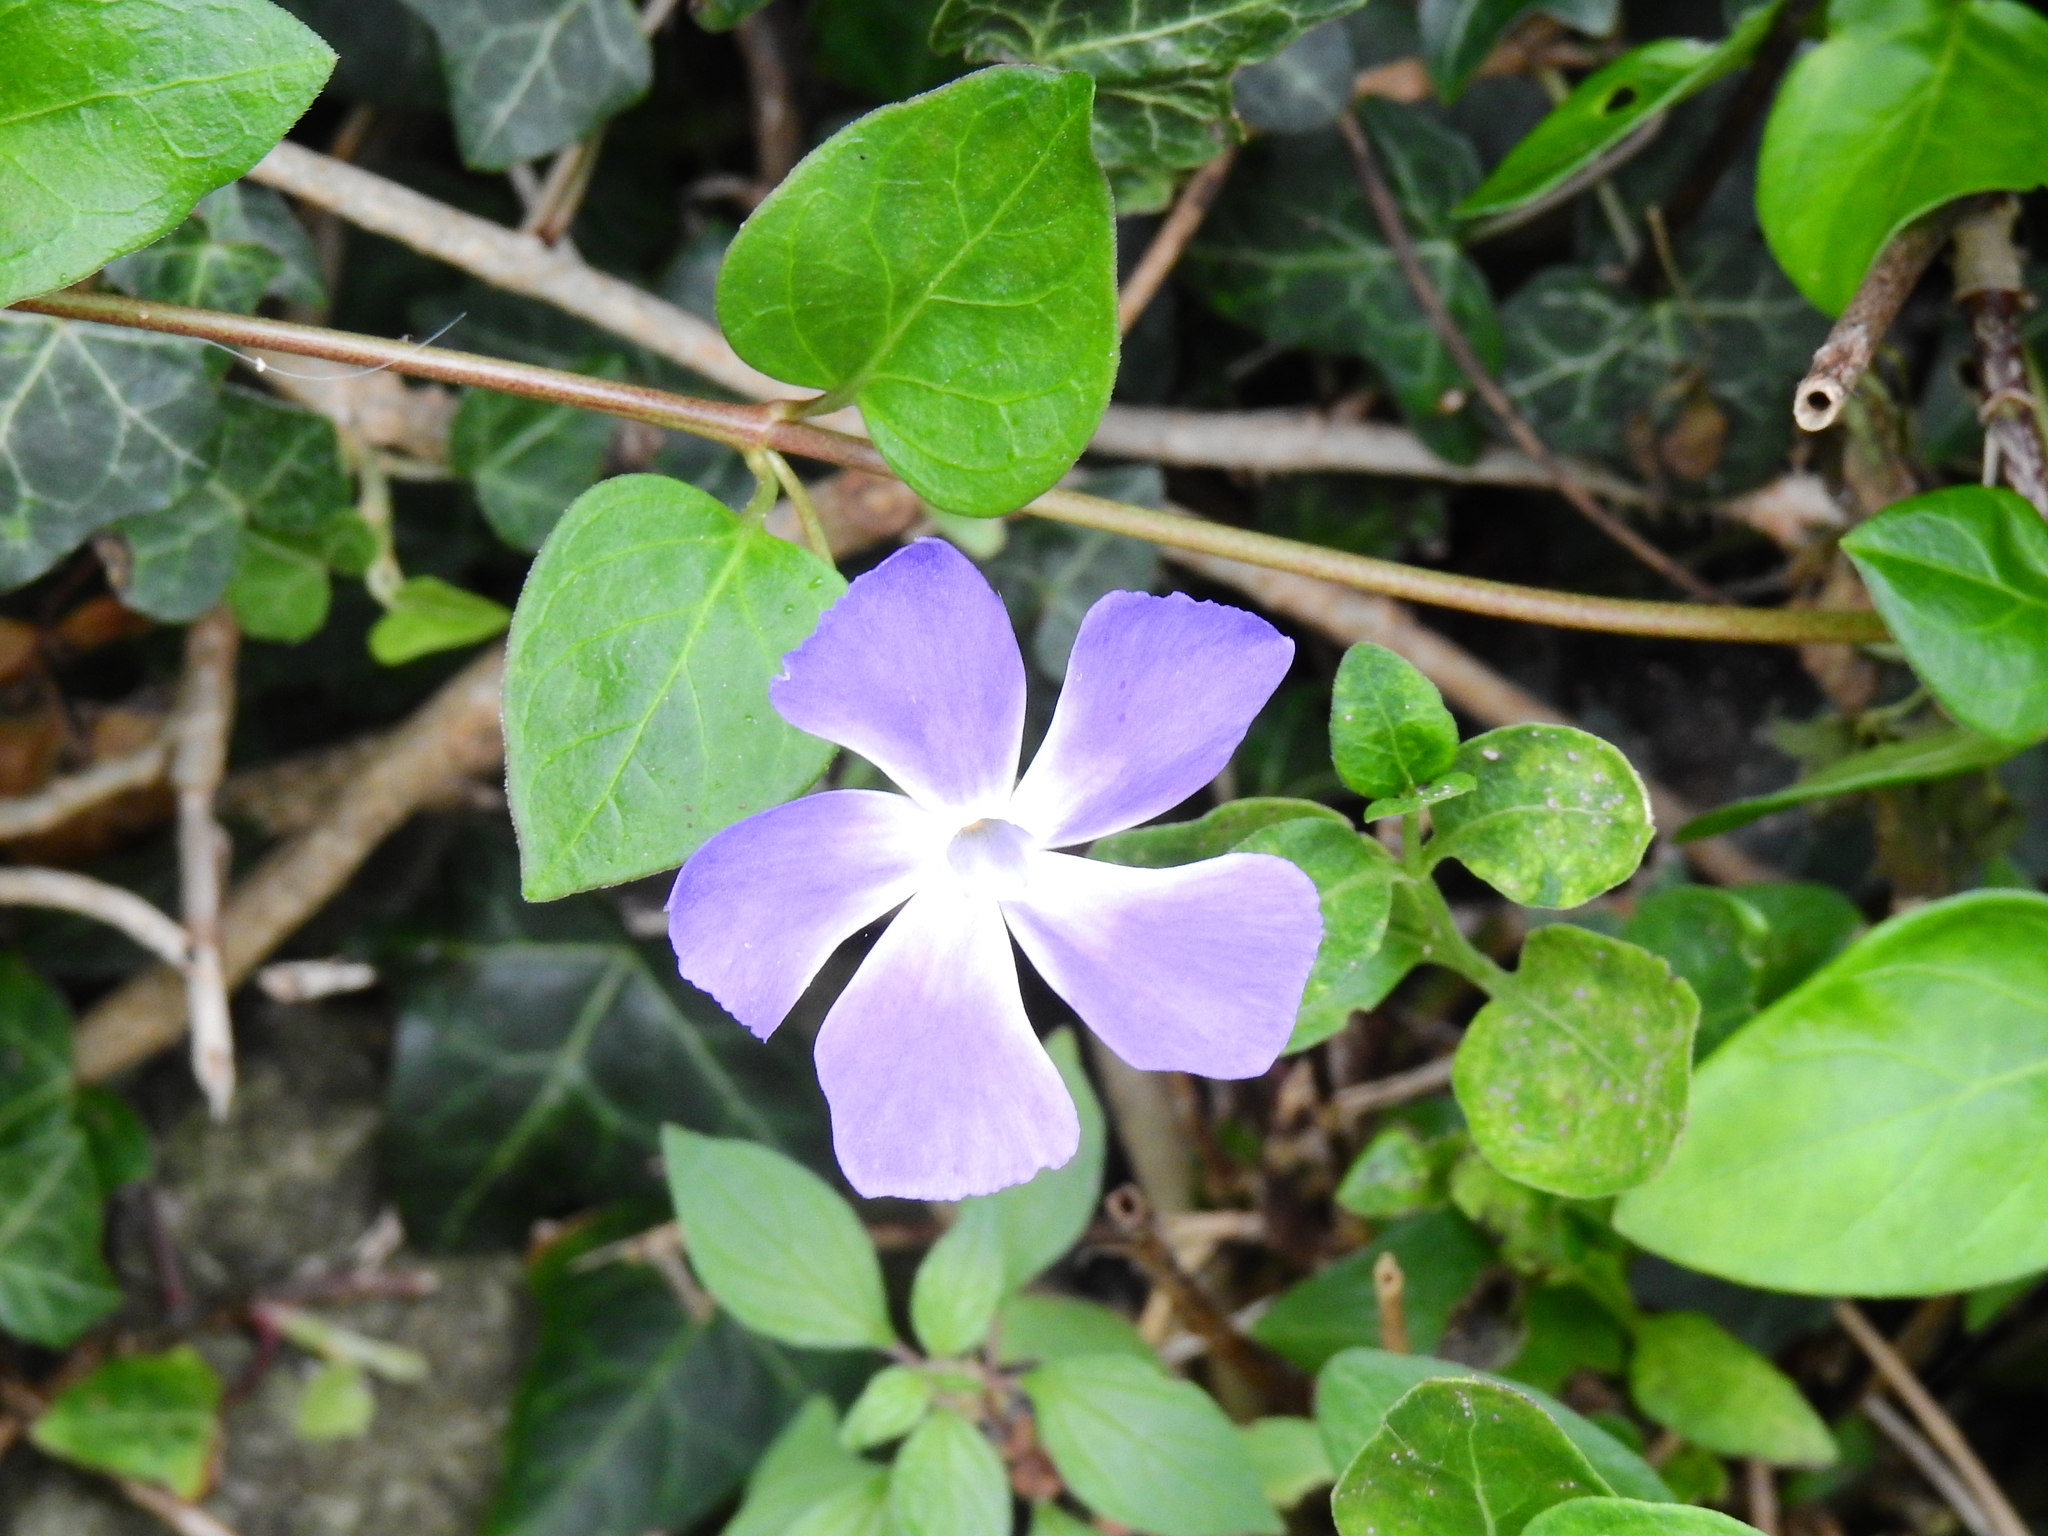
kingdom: Plantae
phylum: Tracheophyta
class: Magnoliopsida
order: Gentianales
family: Apocynaceae
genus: Vinca
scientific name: Vinca major
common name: Greater periwinkle
